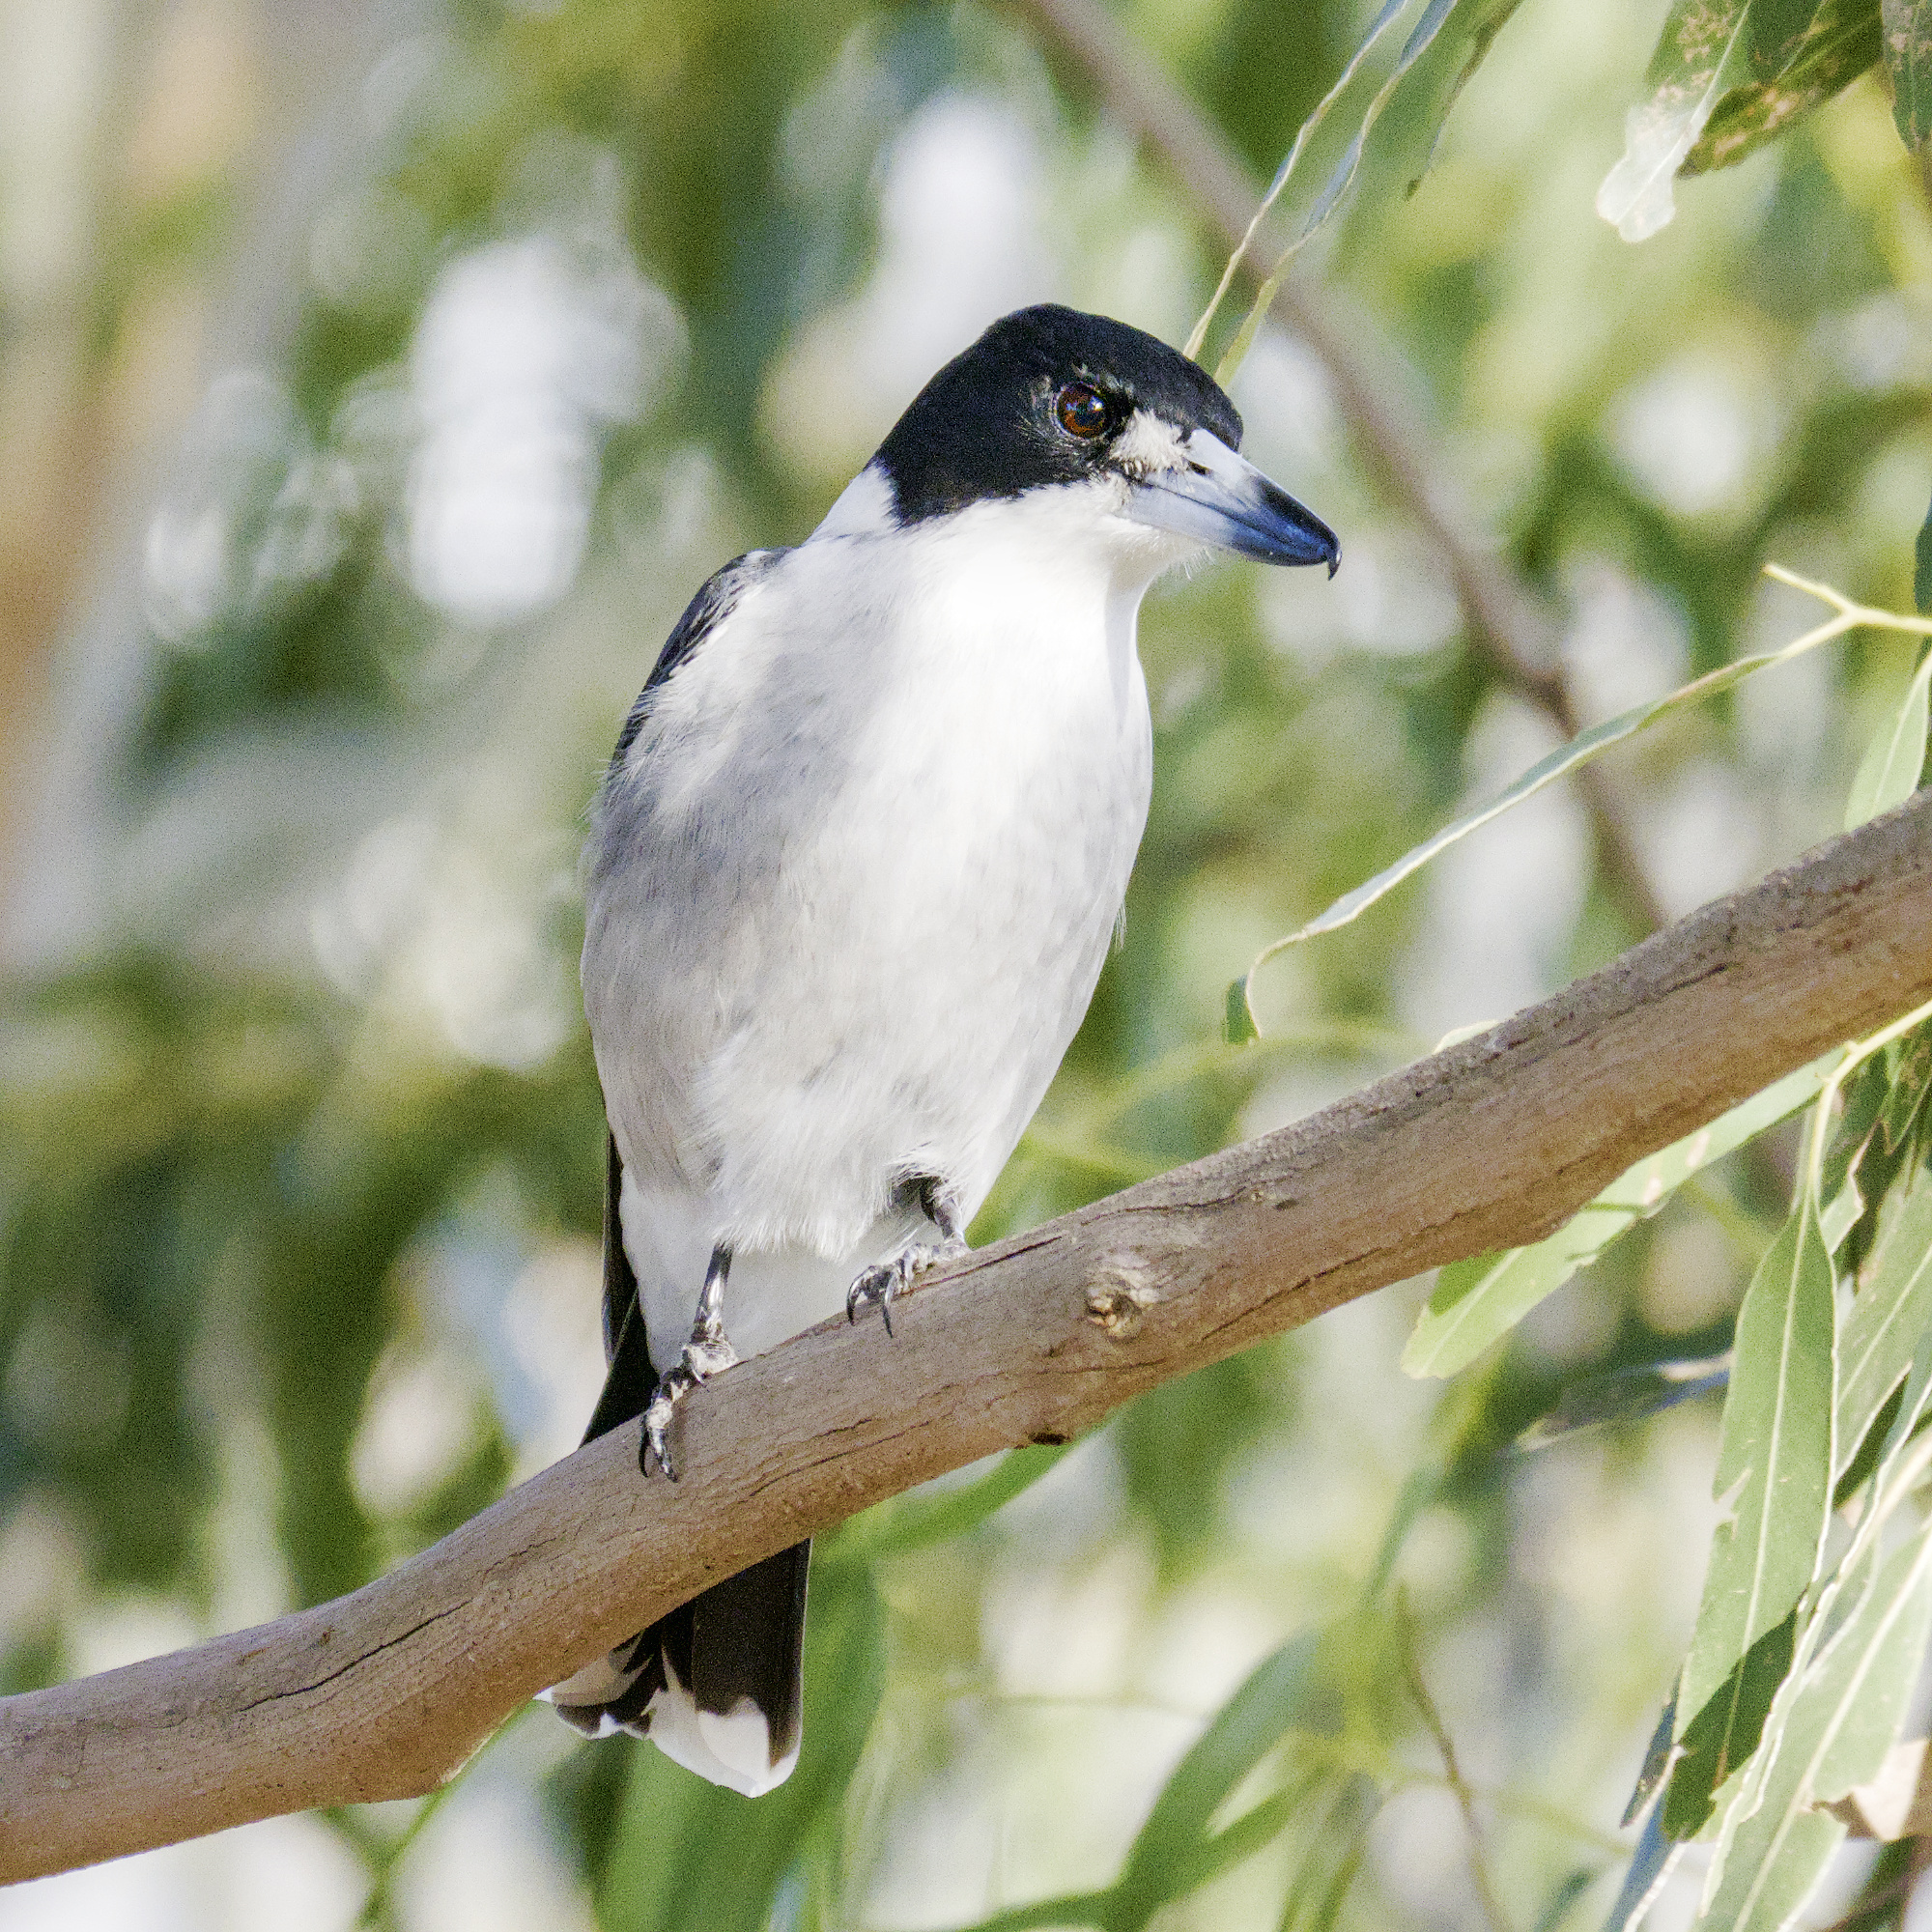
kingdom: Animalia
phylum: Chordata
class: Aves
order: Passeriformes
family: Cracticidae
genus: Cracticus
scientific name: Cracticus torquatus
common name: Grey butcherbird
